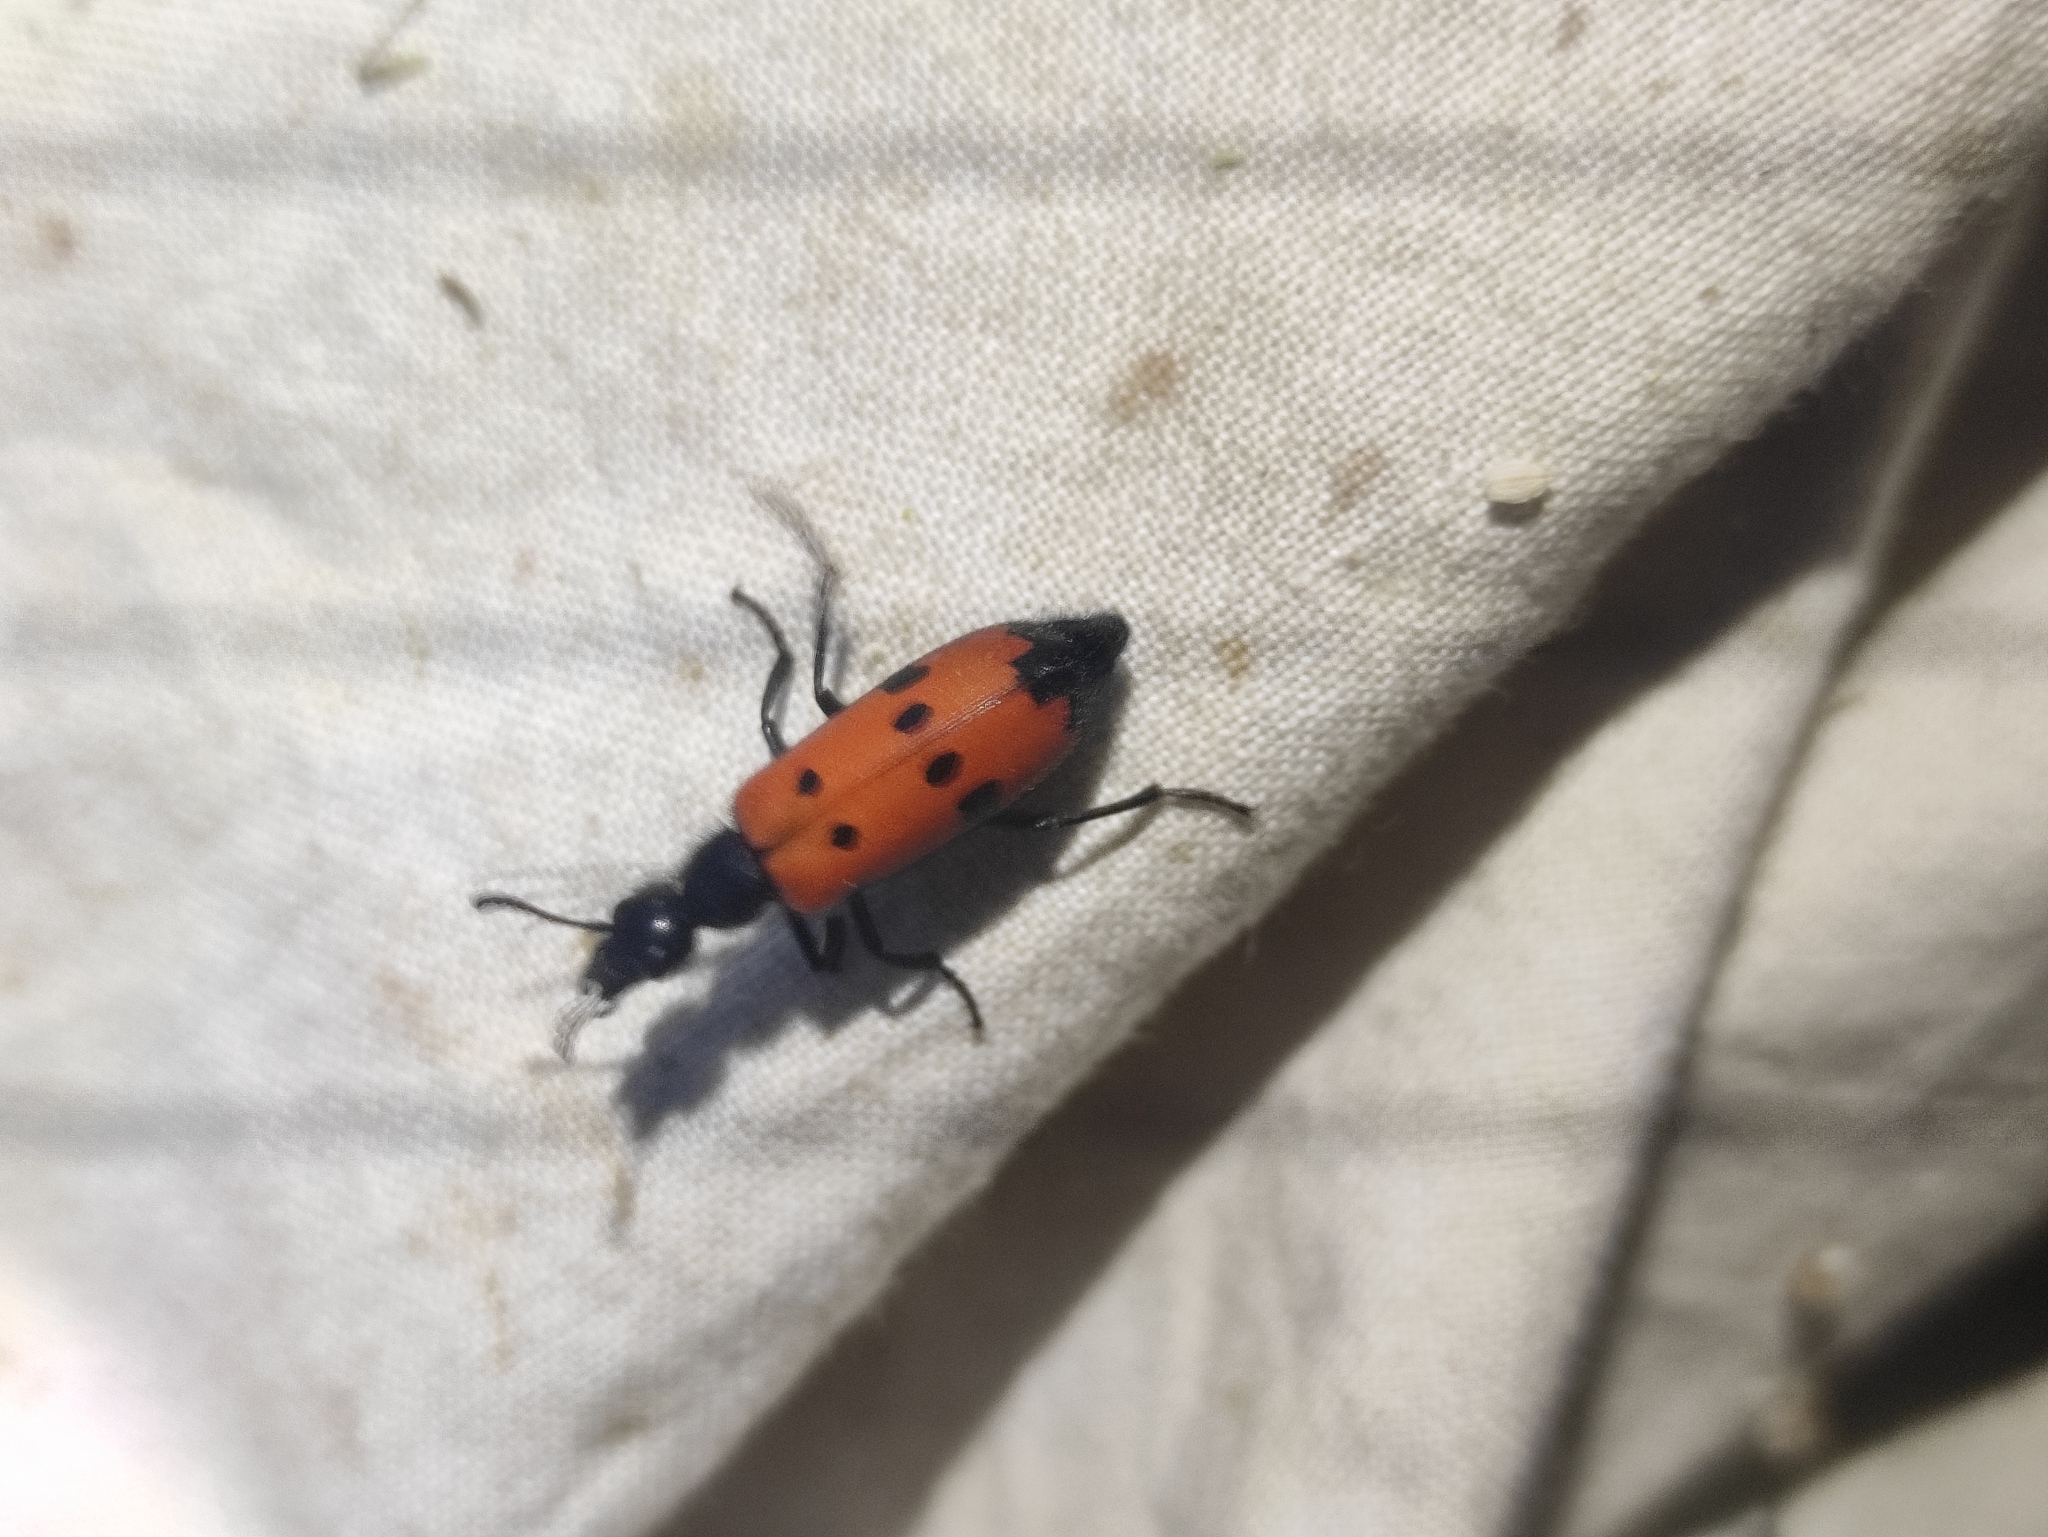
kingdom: Animalia
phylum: Arthropoda
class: Insecta
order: Coleoptera
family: Meloidae
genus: Mylabris
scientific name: Mylabris quadripunctata
